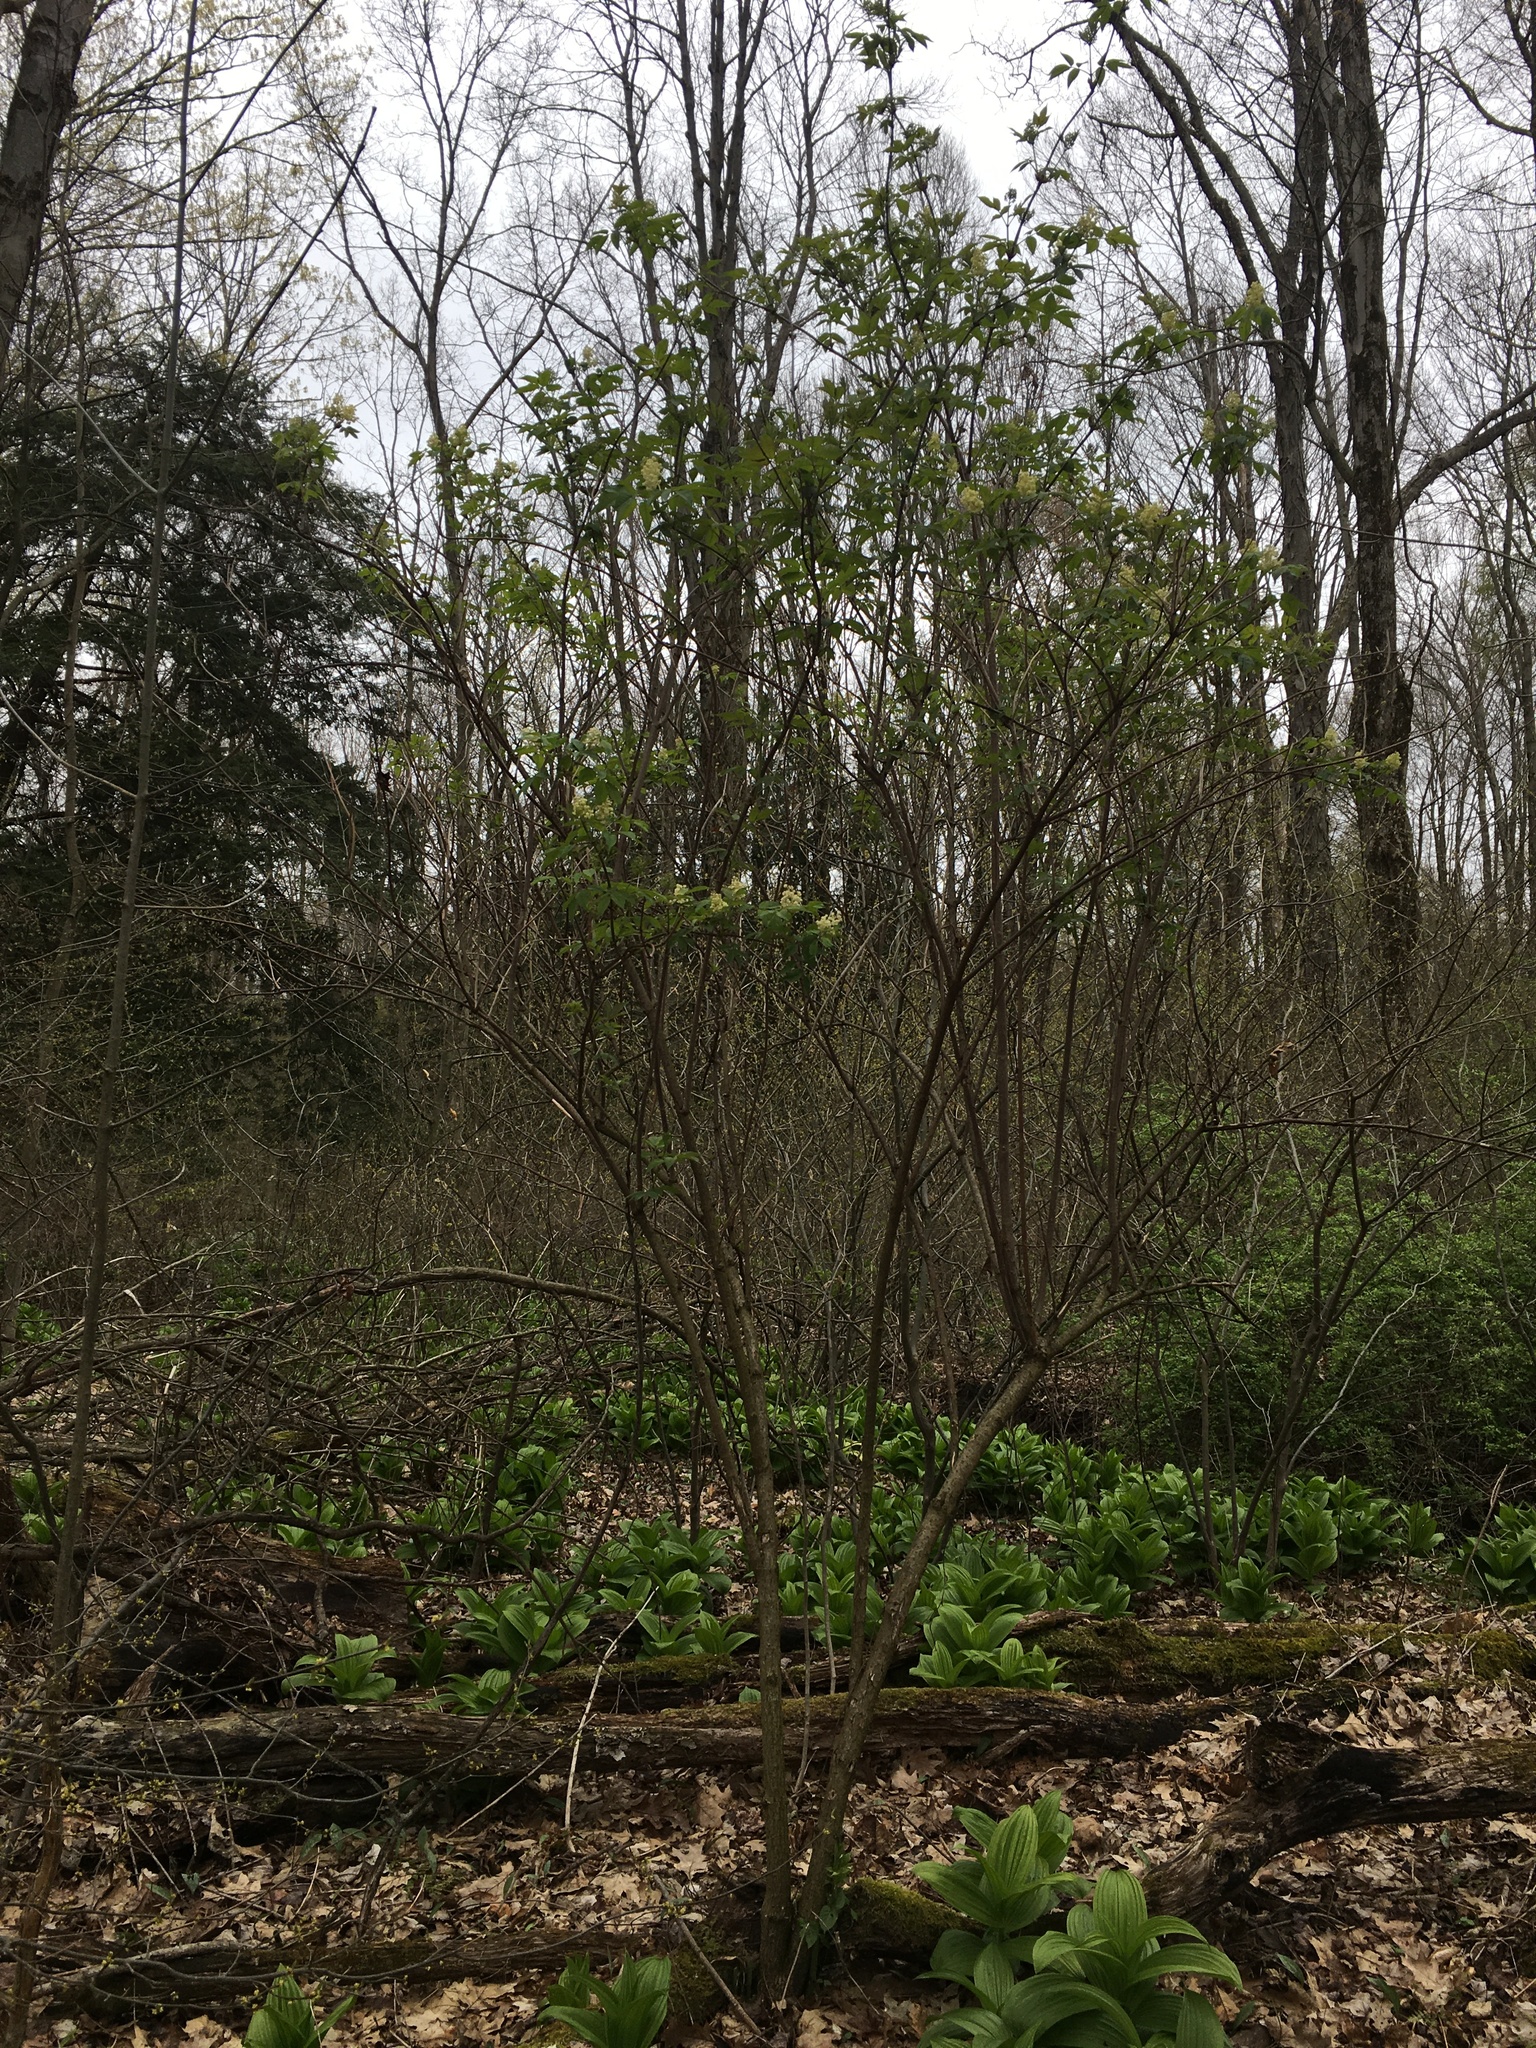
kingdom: Plantae
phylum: Tracheophyta
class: Magnoliopsida
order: Dipsacales
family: Viburnaceae
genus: Sambucus
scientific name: Sambucus racemosa
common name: Red-berried elder
